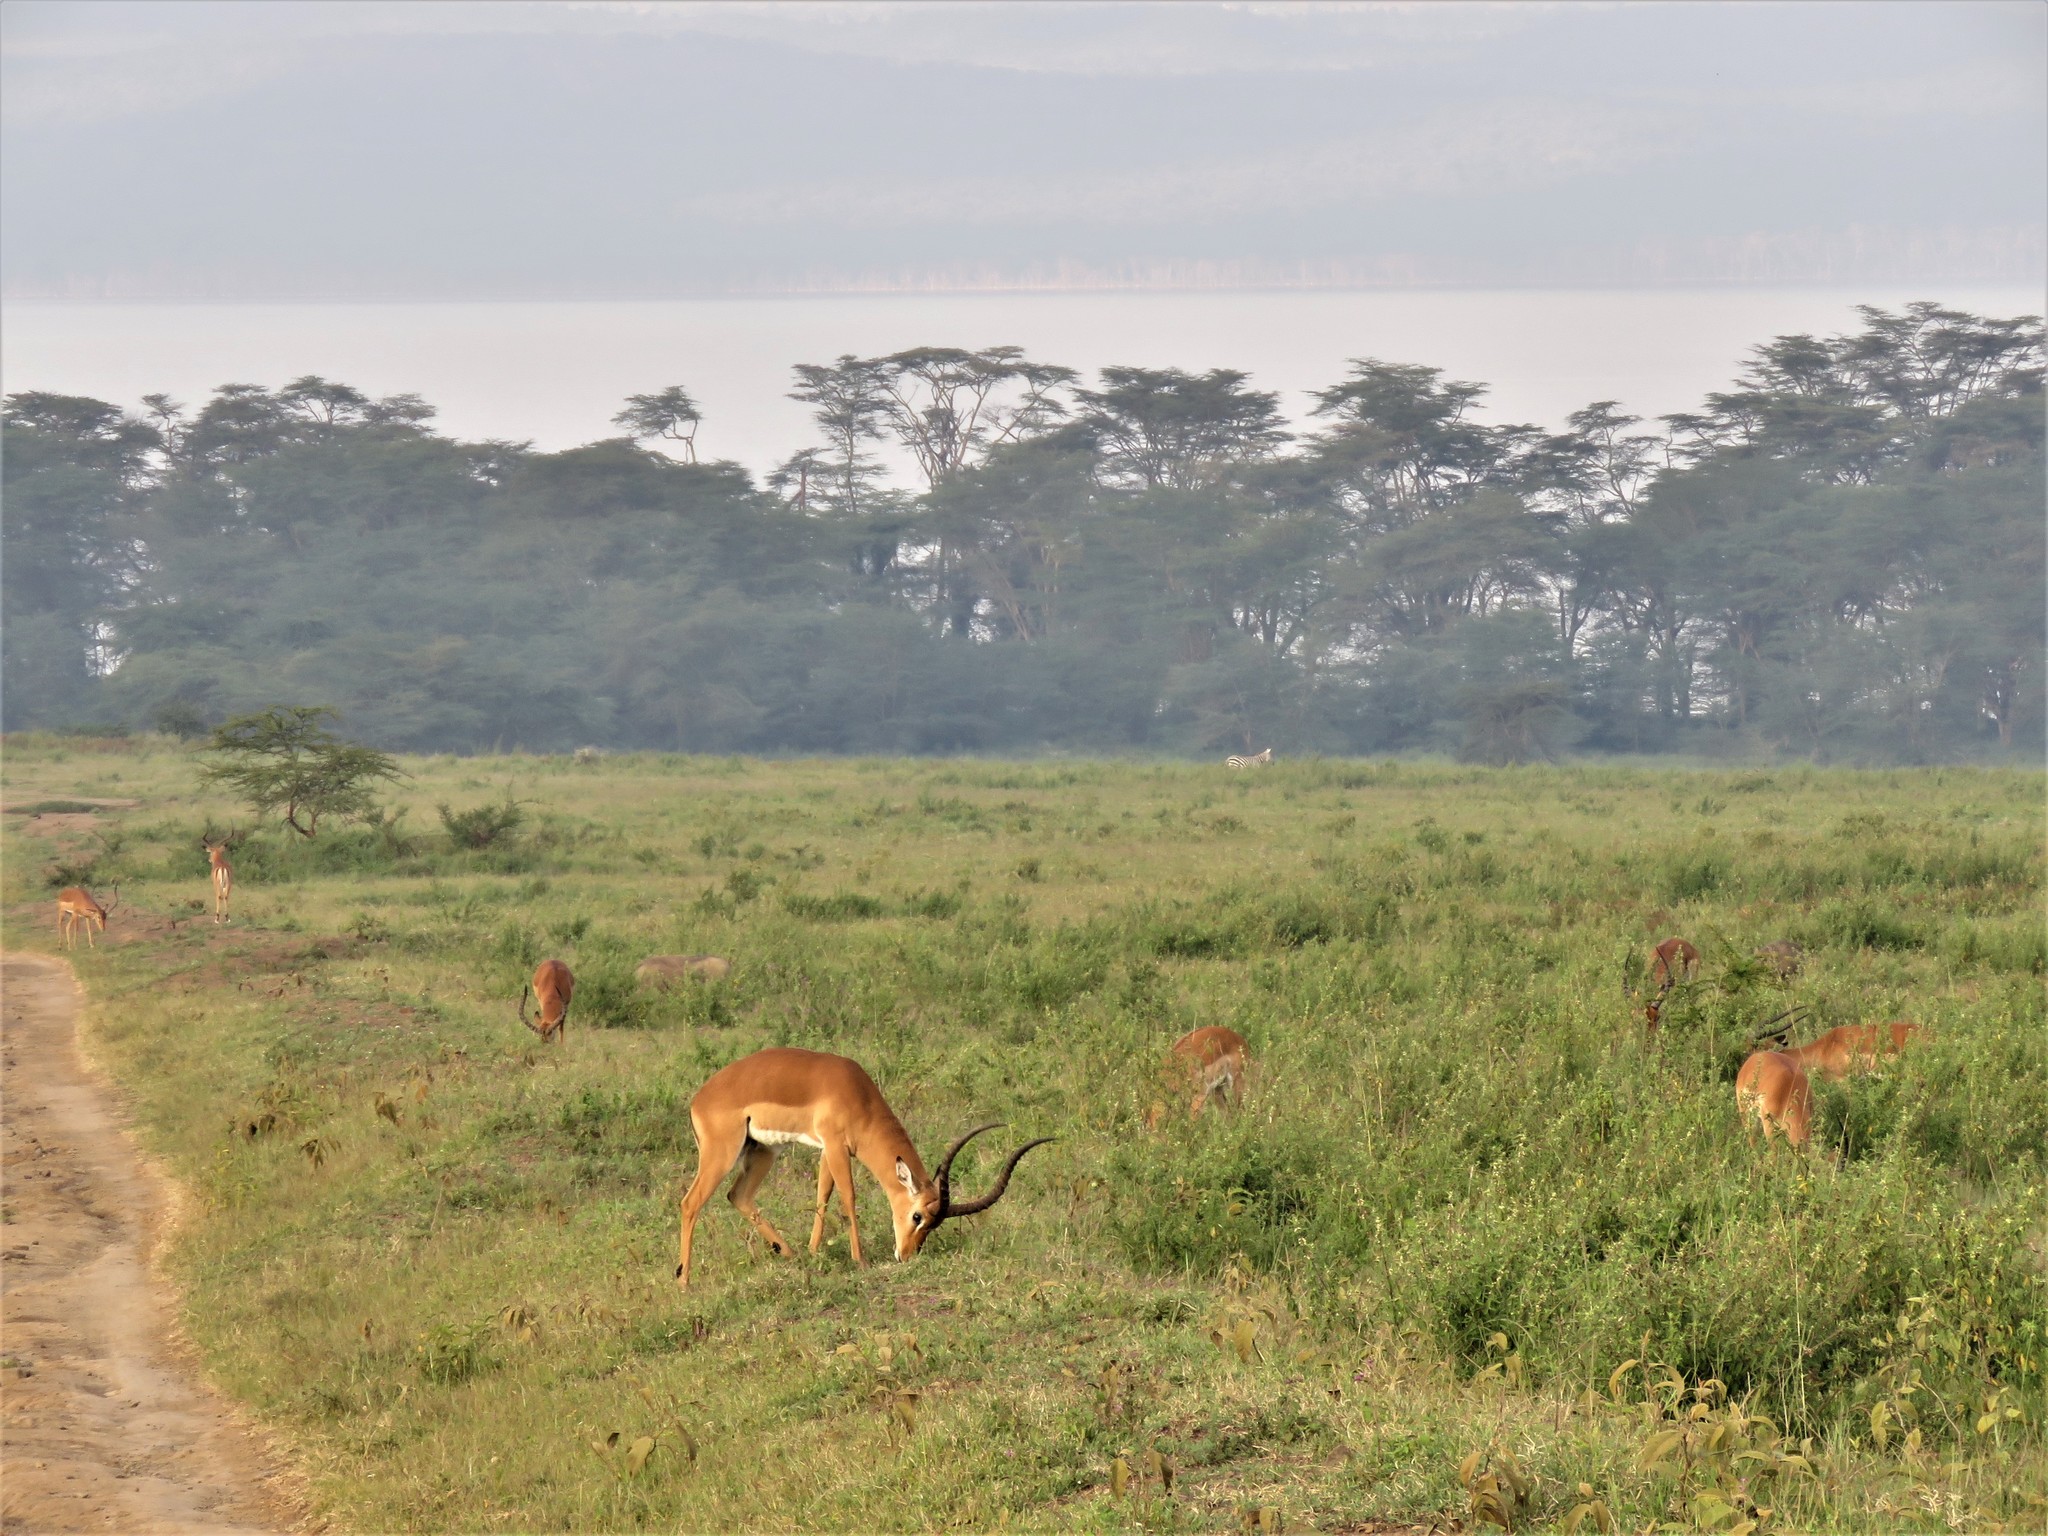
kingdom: Animalia
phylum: Chordata
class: Mammalia
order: Artiodactyla
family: Bovidae
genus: Aepyceros
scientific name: Aepyceros melampus
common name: Impala
